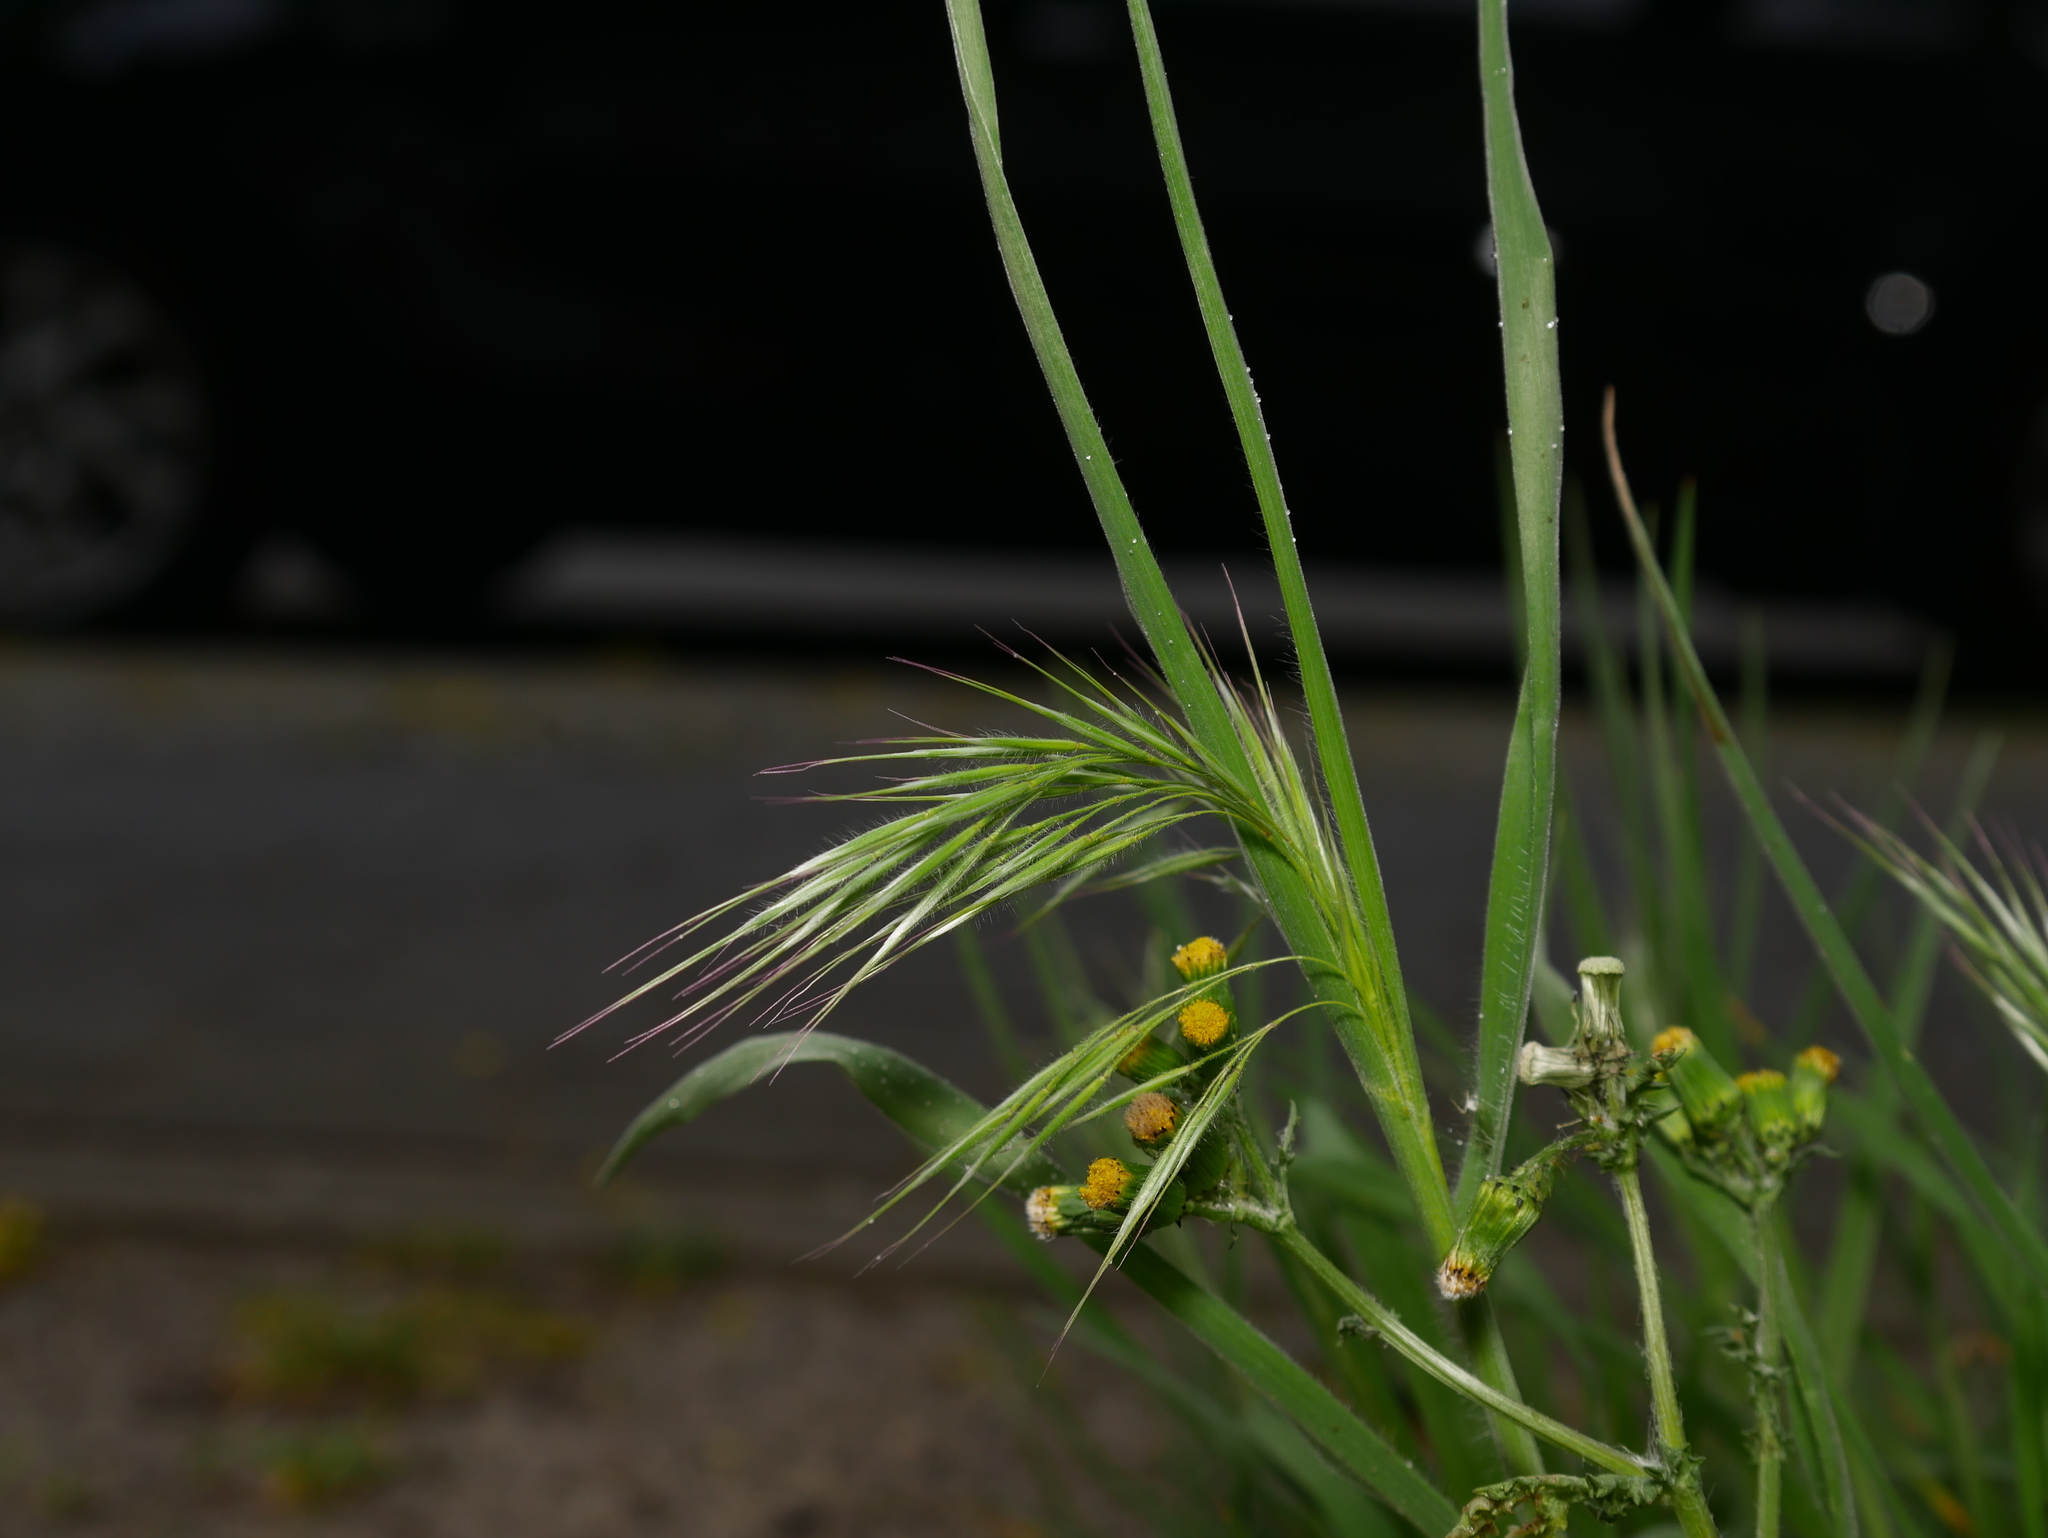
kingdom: Plantae
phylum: Tracheophyta
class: Liliopsida
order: Poales
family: Poaceae
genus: Bromus
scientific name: Bromus tectorum
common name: Cheatgrass
